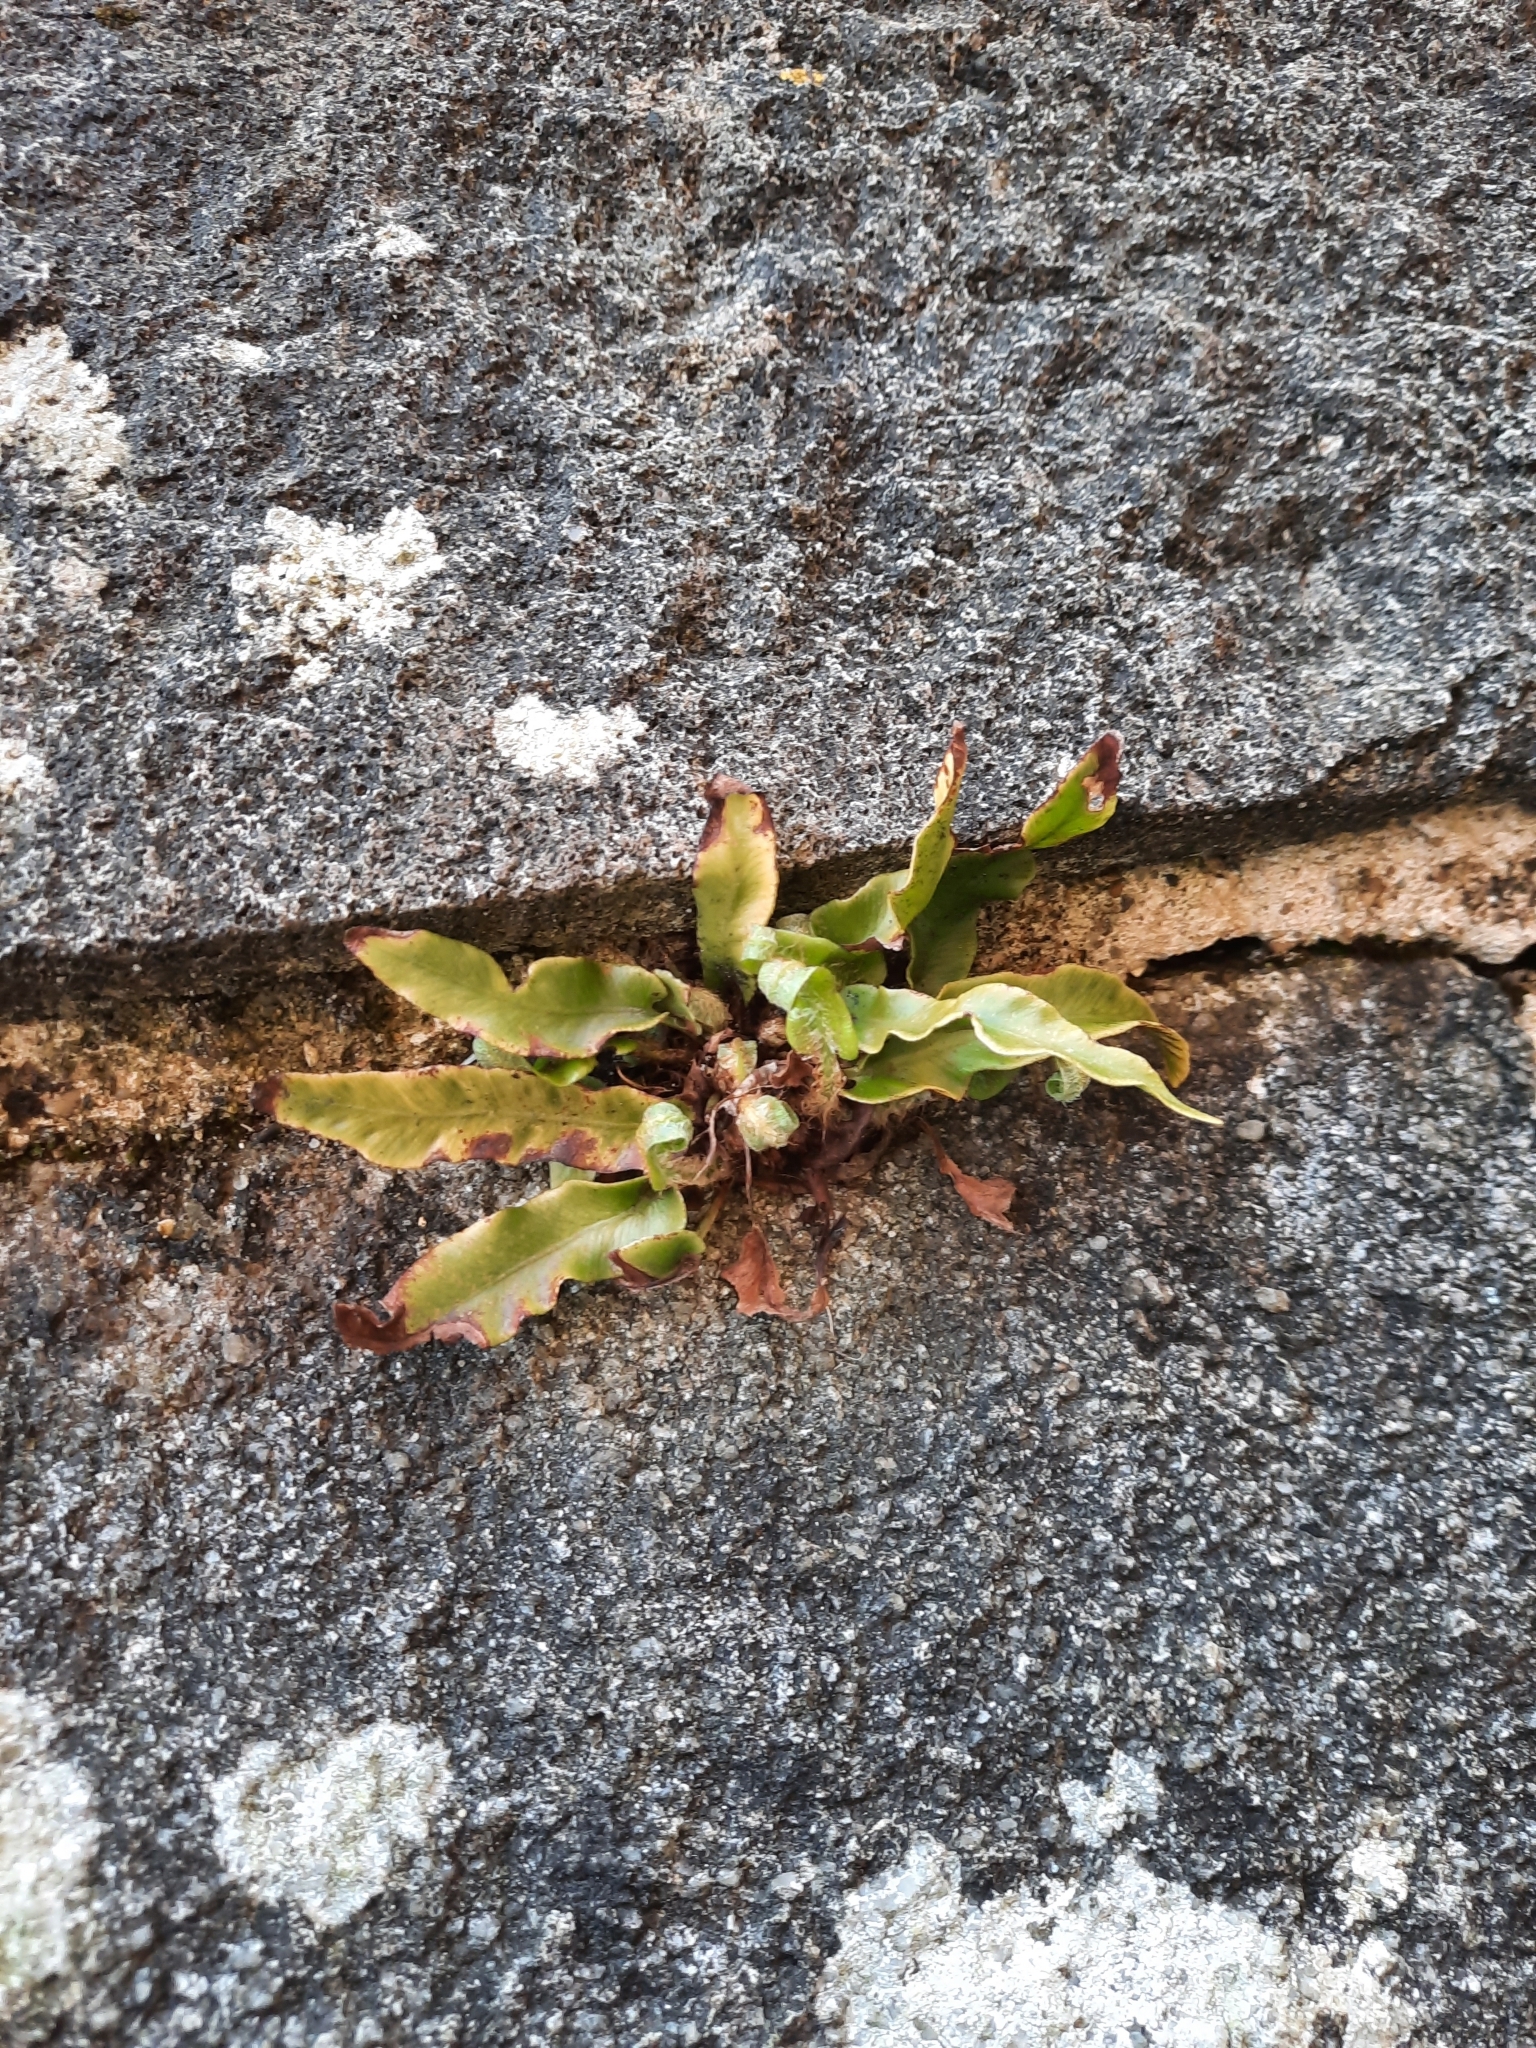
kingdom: Plantae
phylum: Tracheophyta
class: Polypodiopsida
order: Polypodiales
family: Aspleniaceae
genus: Asplenium
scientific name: Asplenium scolopendrium
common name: Hart's-tongue fern
